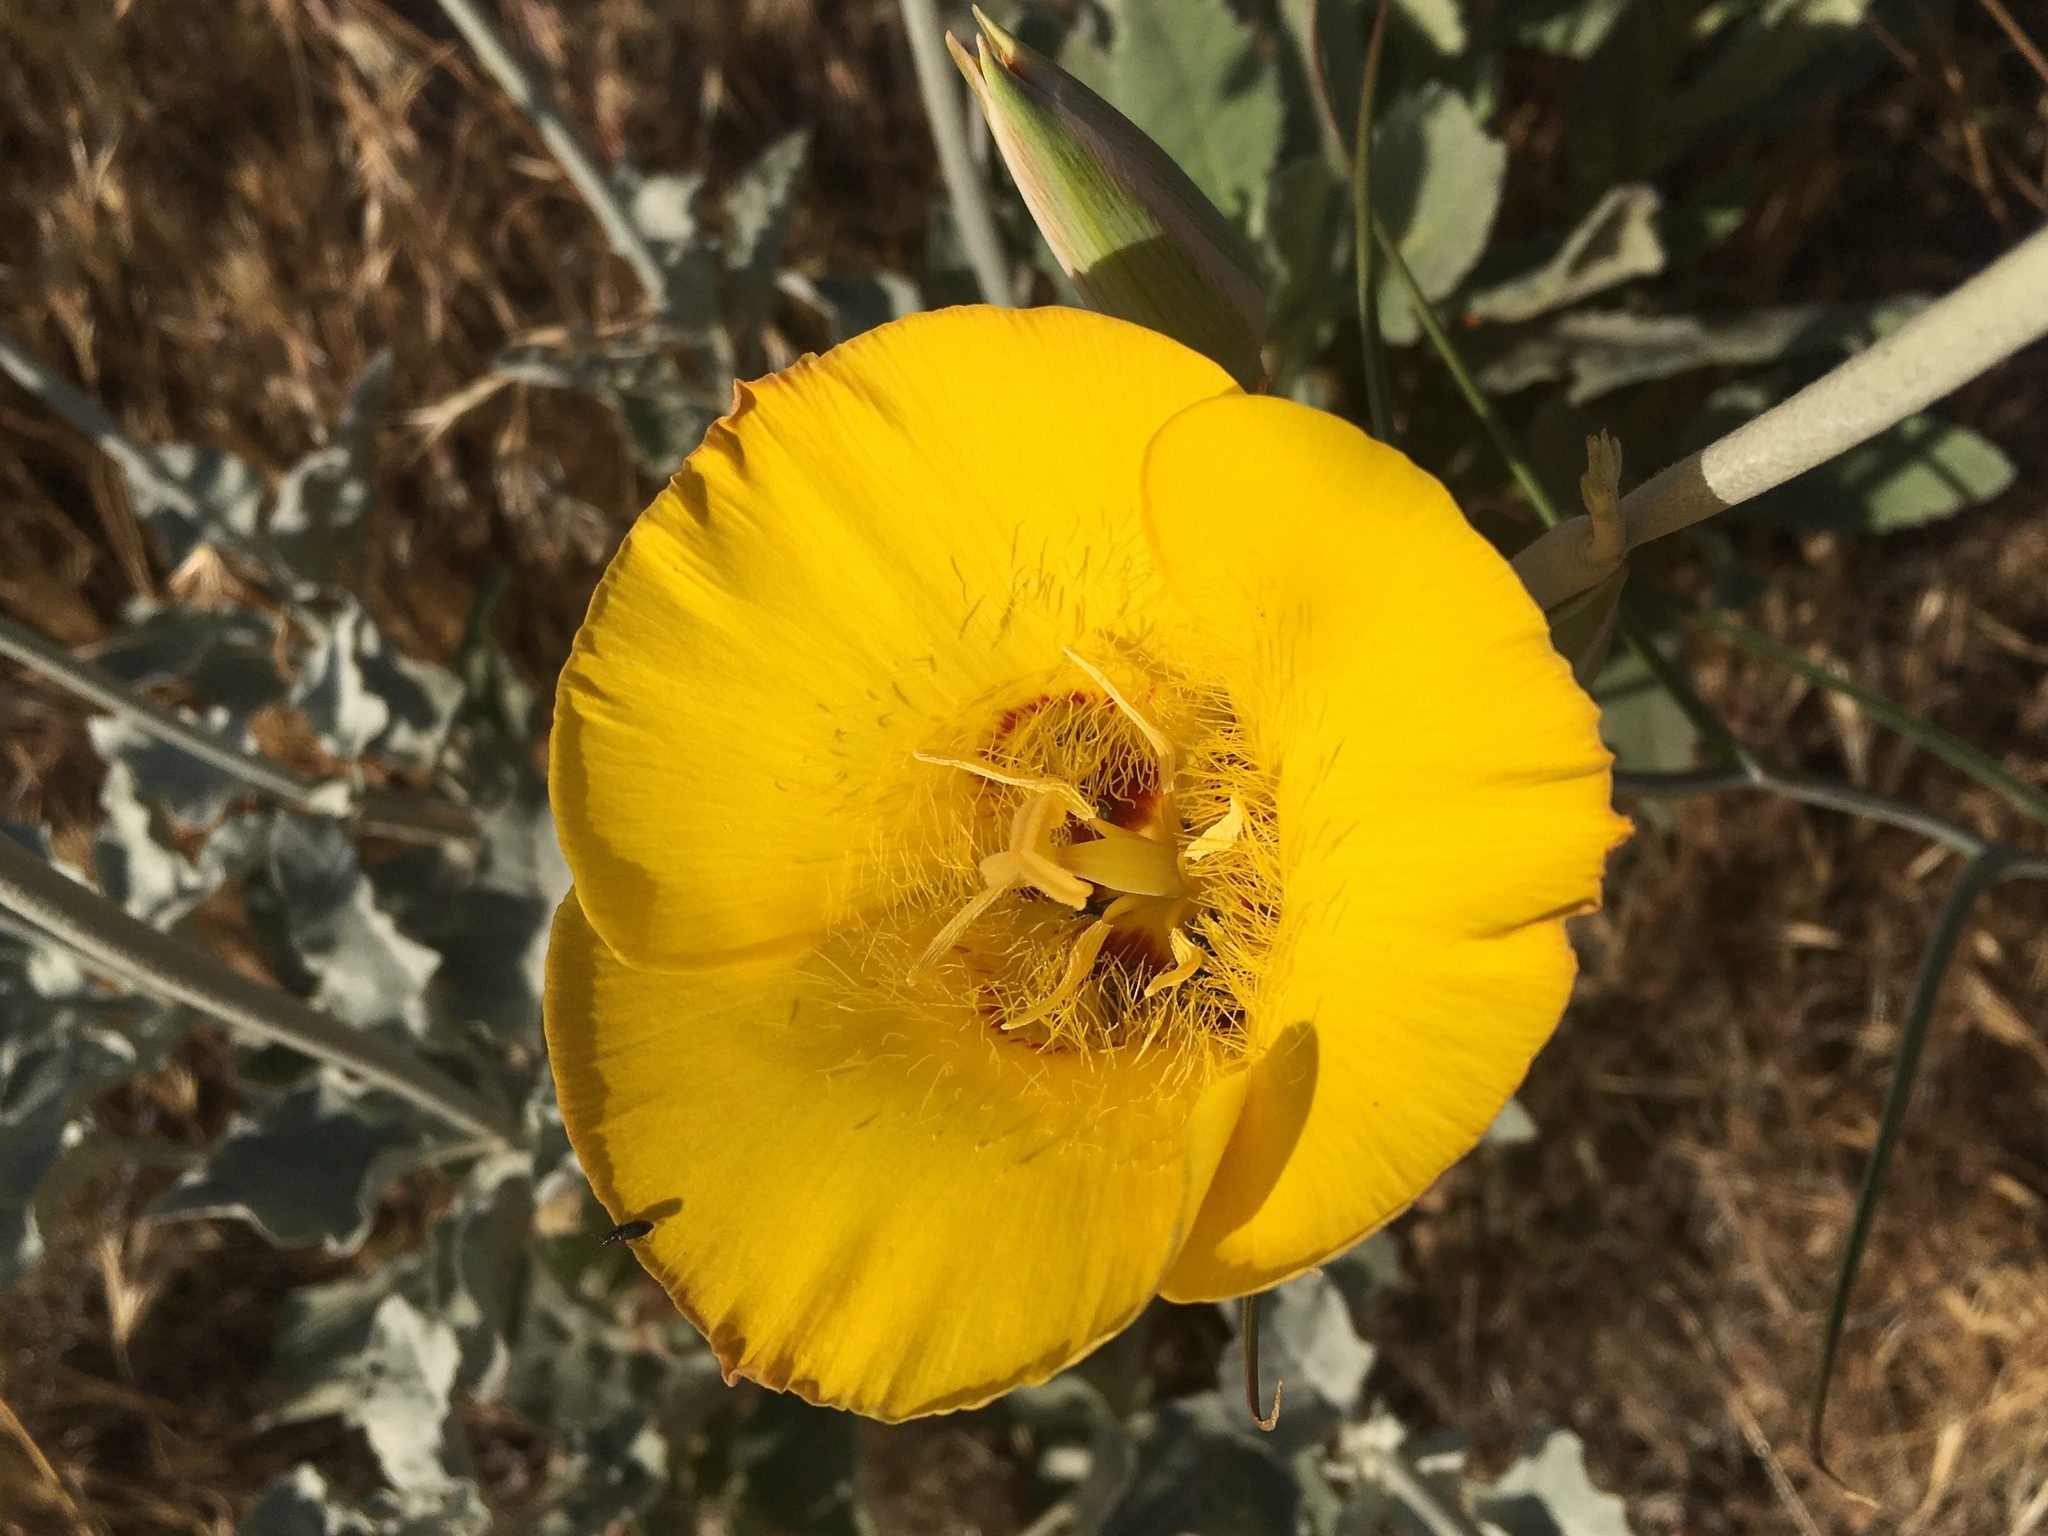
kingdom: Plantae
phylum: Tracheophyta
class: Liliopsida
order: Liliales
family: Liliaceae
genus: Calochortus
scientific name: Calochortus concolor
